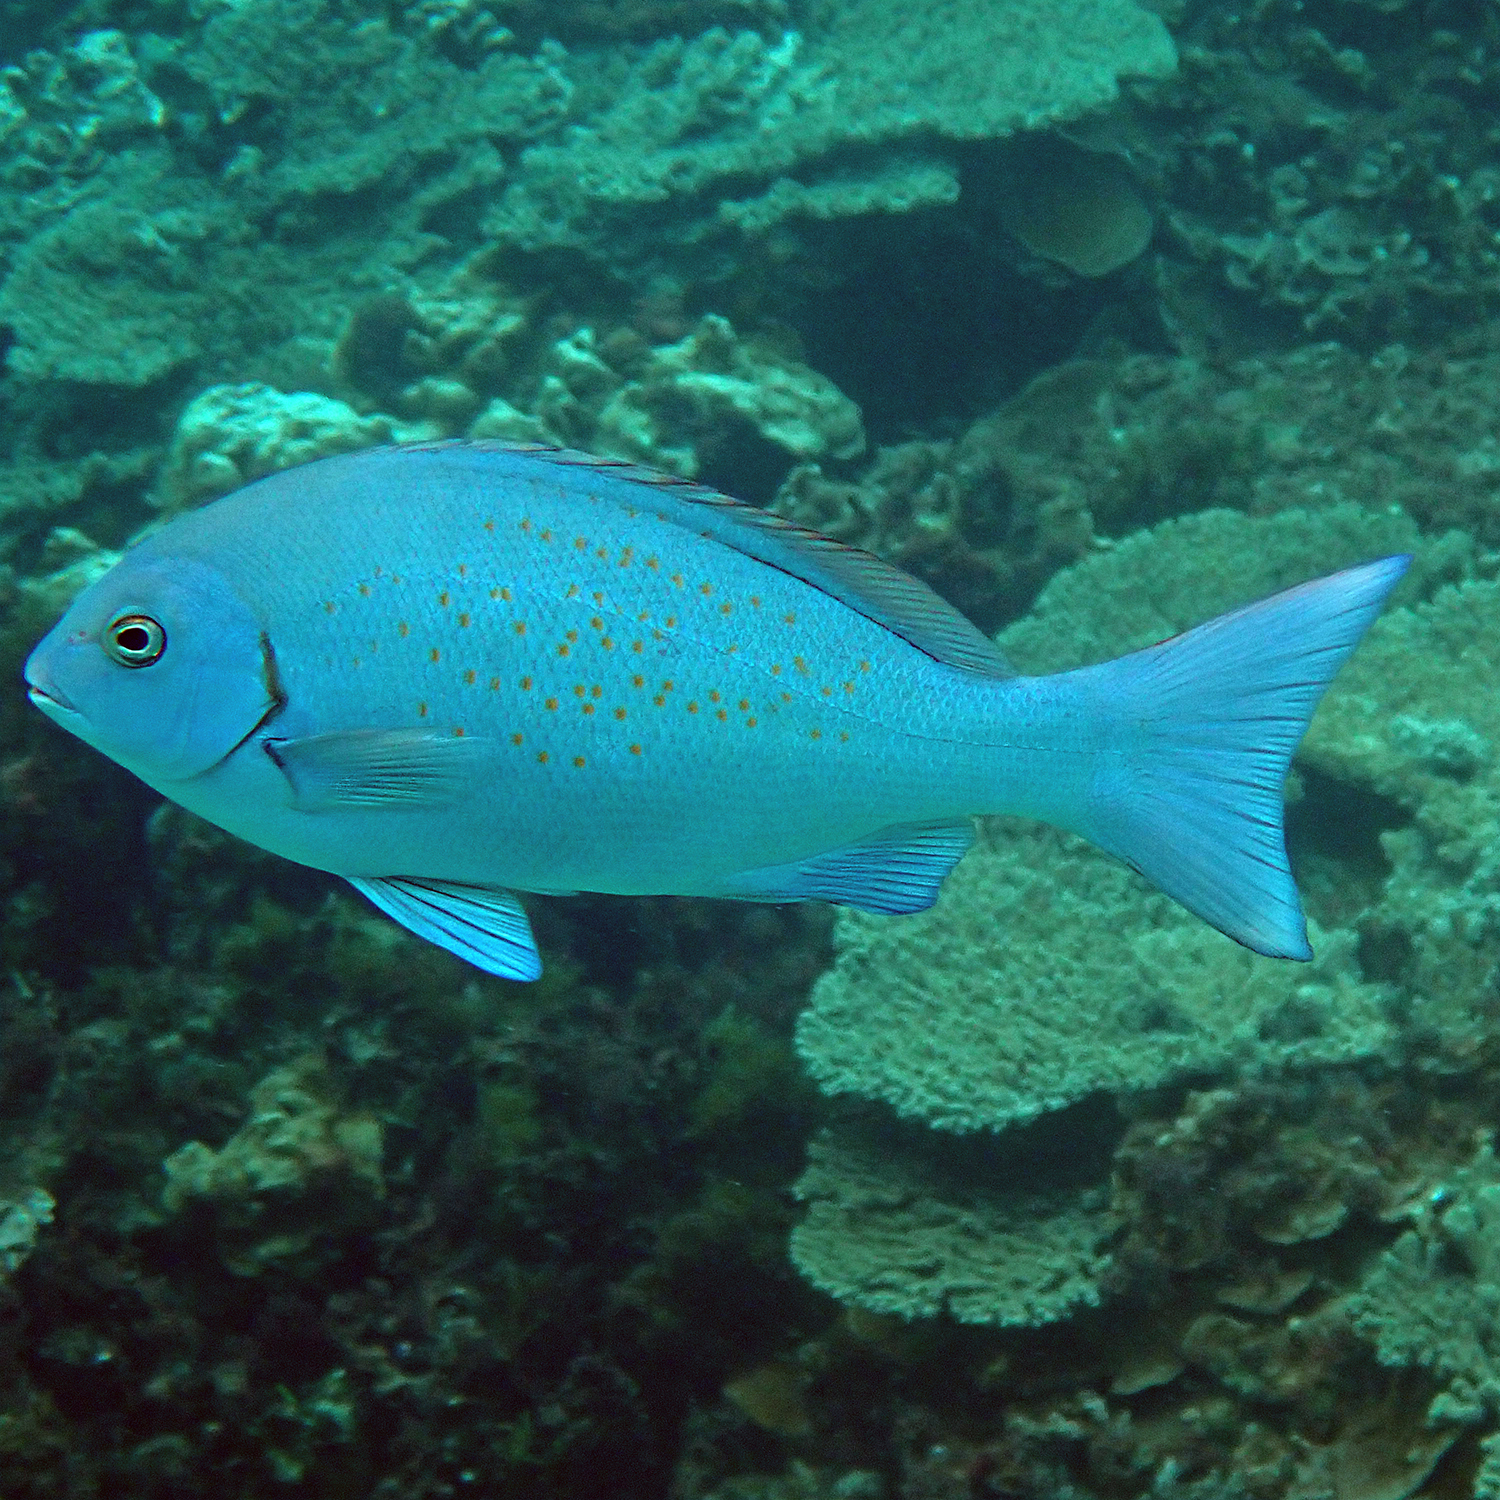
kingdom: Animalia
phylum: Chordata
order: Perciformes
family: Kyphosidae
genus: Girella
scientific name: Girella cyanea
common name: Bluefish
